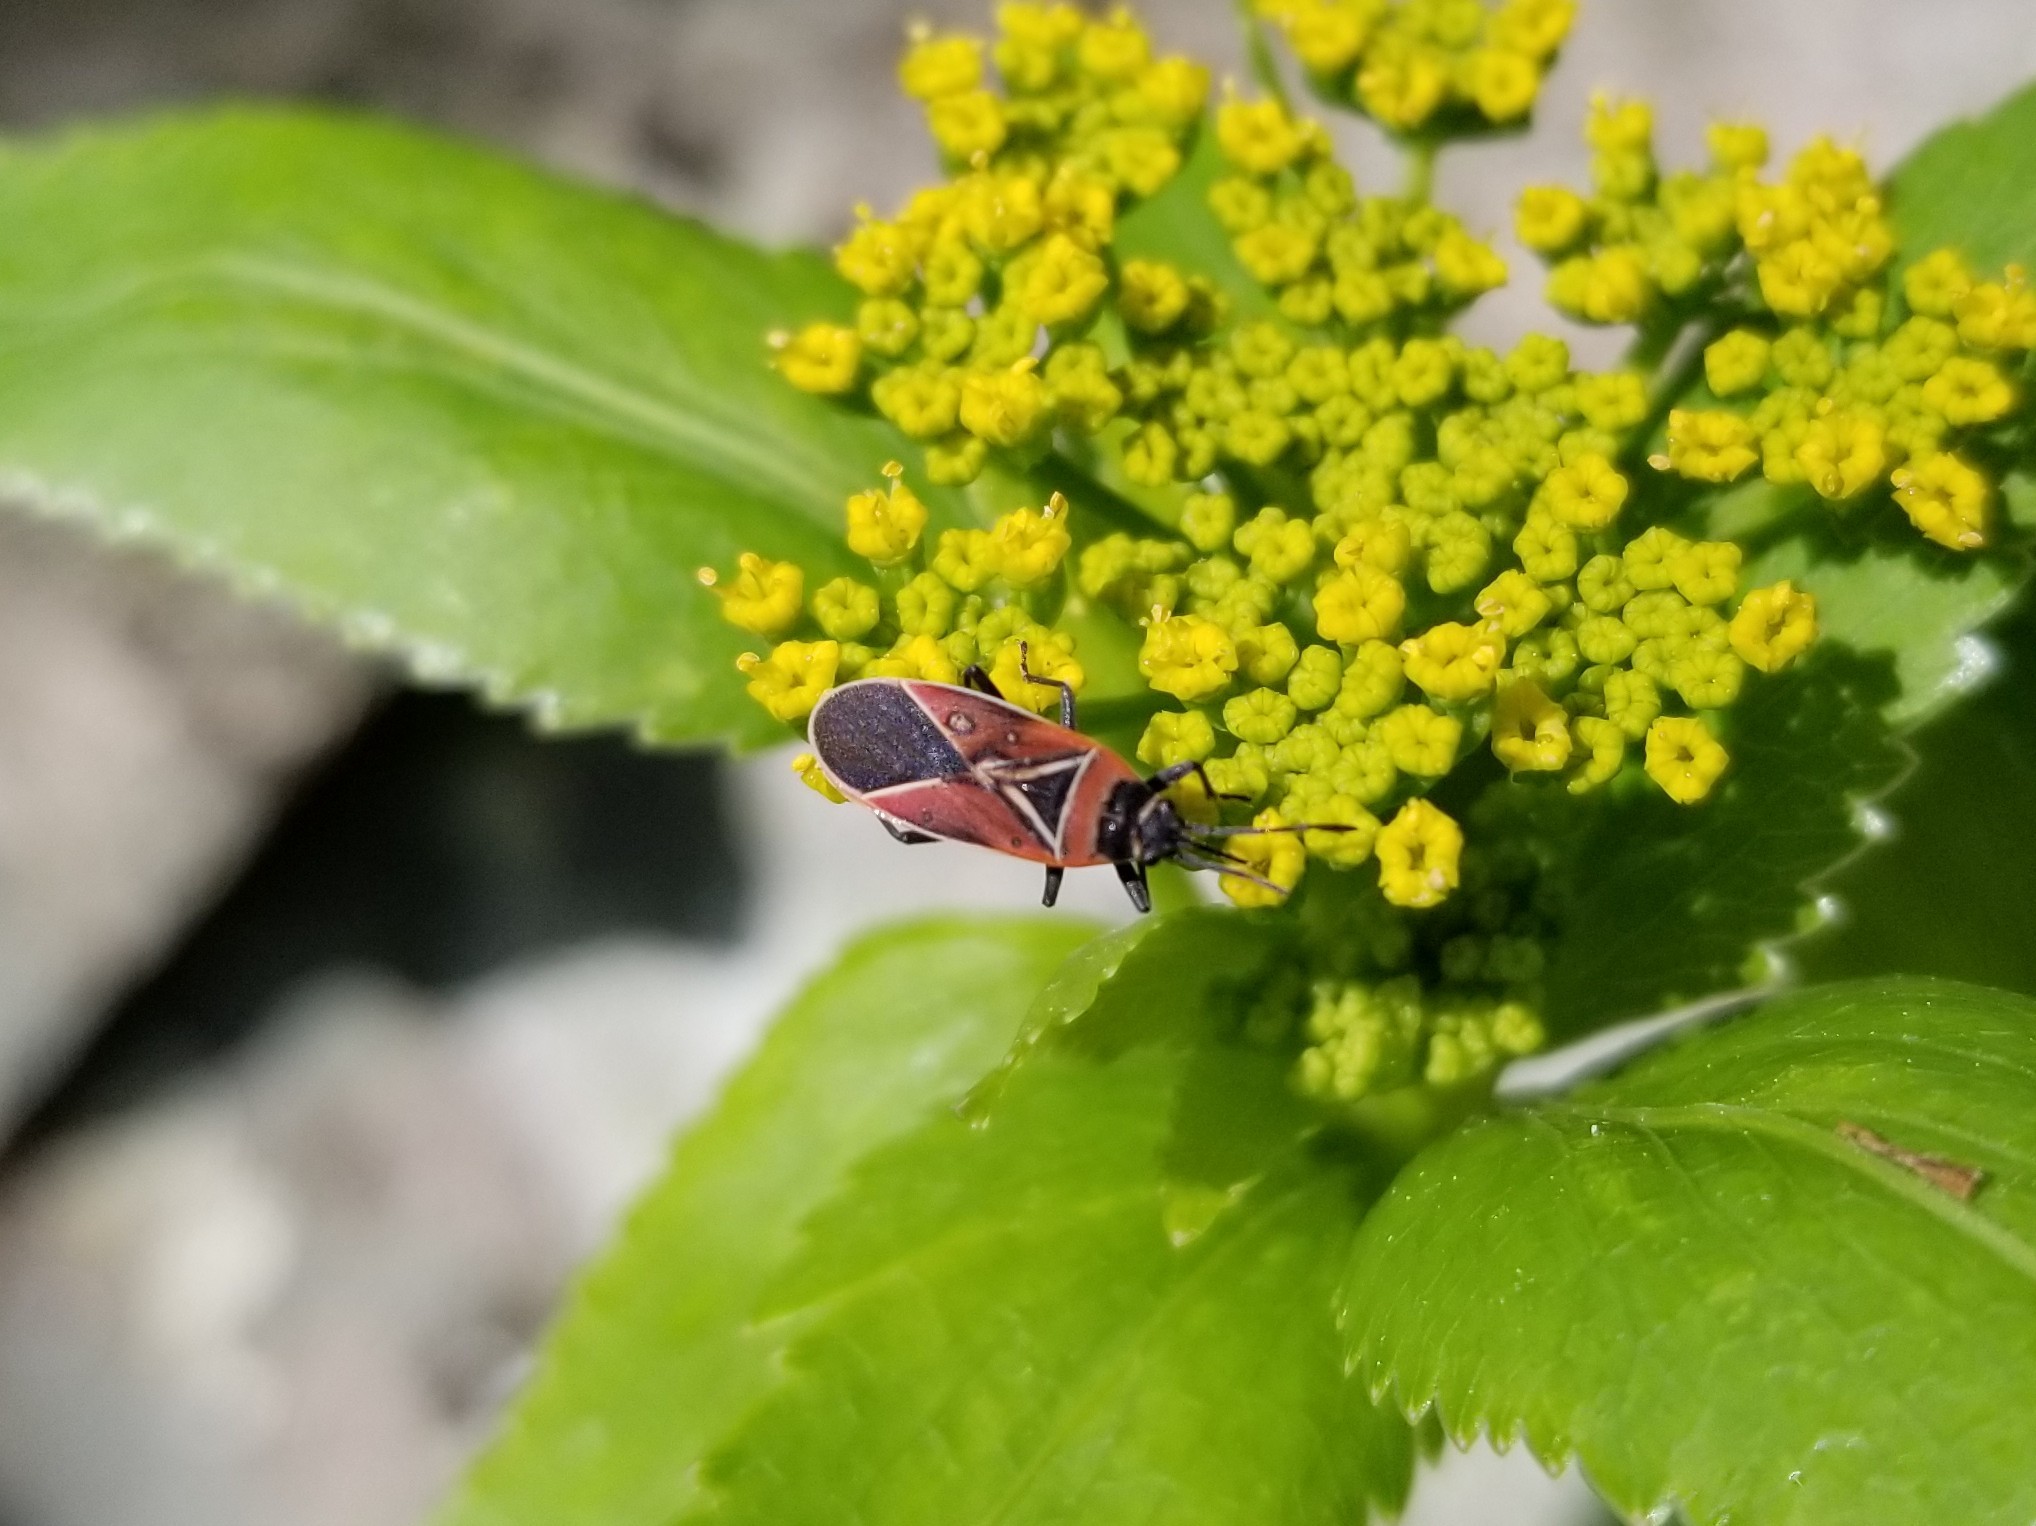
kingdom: Animalia
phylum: Arthropoda
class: Insecta
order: Hemiptera
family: Lygaeidae
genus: Neacoryphus
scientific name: Neacoryphus bicrucis
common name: Lygaeid bug
